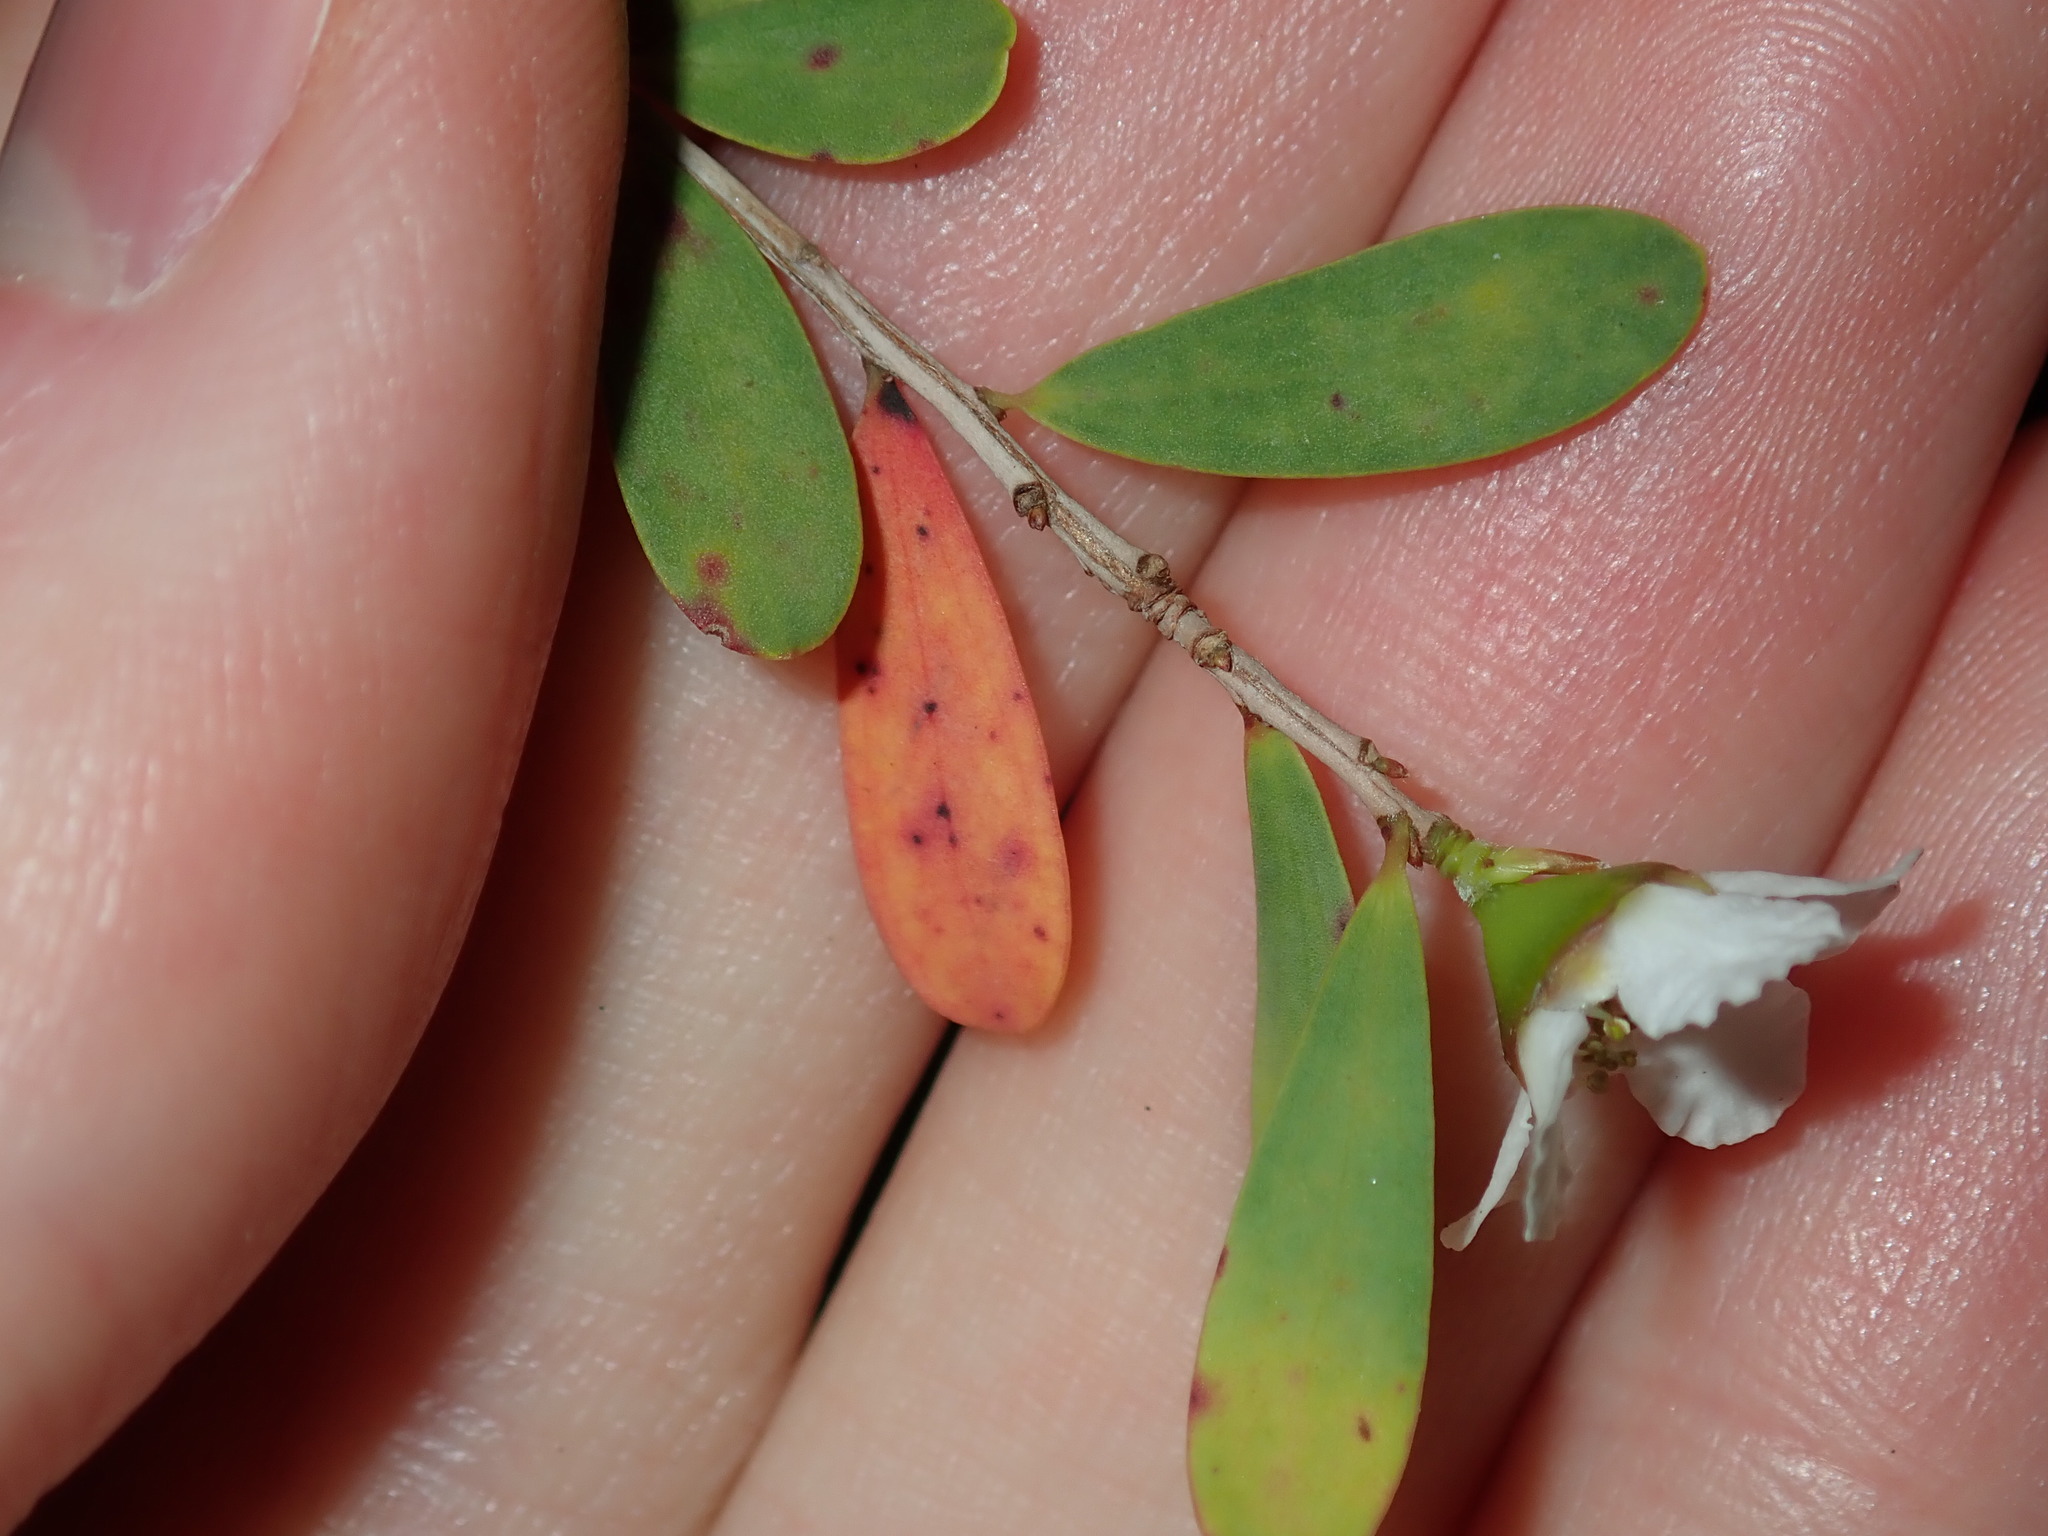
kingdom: Plantae
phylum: Tracheophyta
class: Magnoliopsida
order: Myrtales
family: Myrtaceae
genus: Leptospermum
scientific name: Leptospermum laevigatum
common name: Australian teatree
